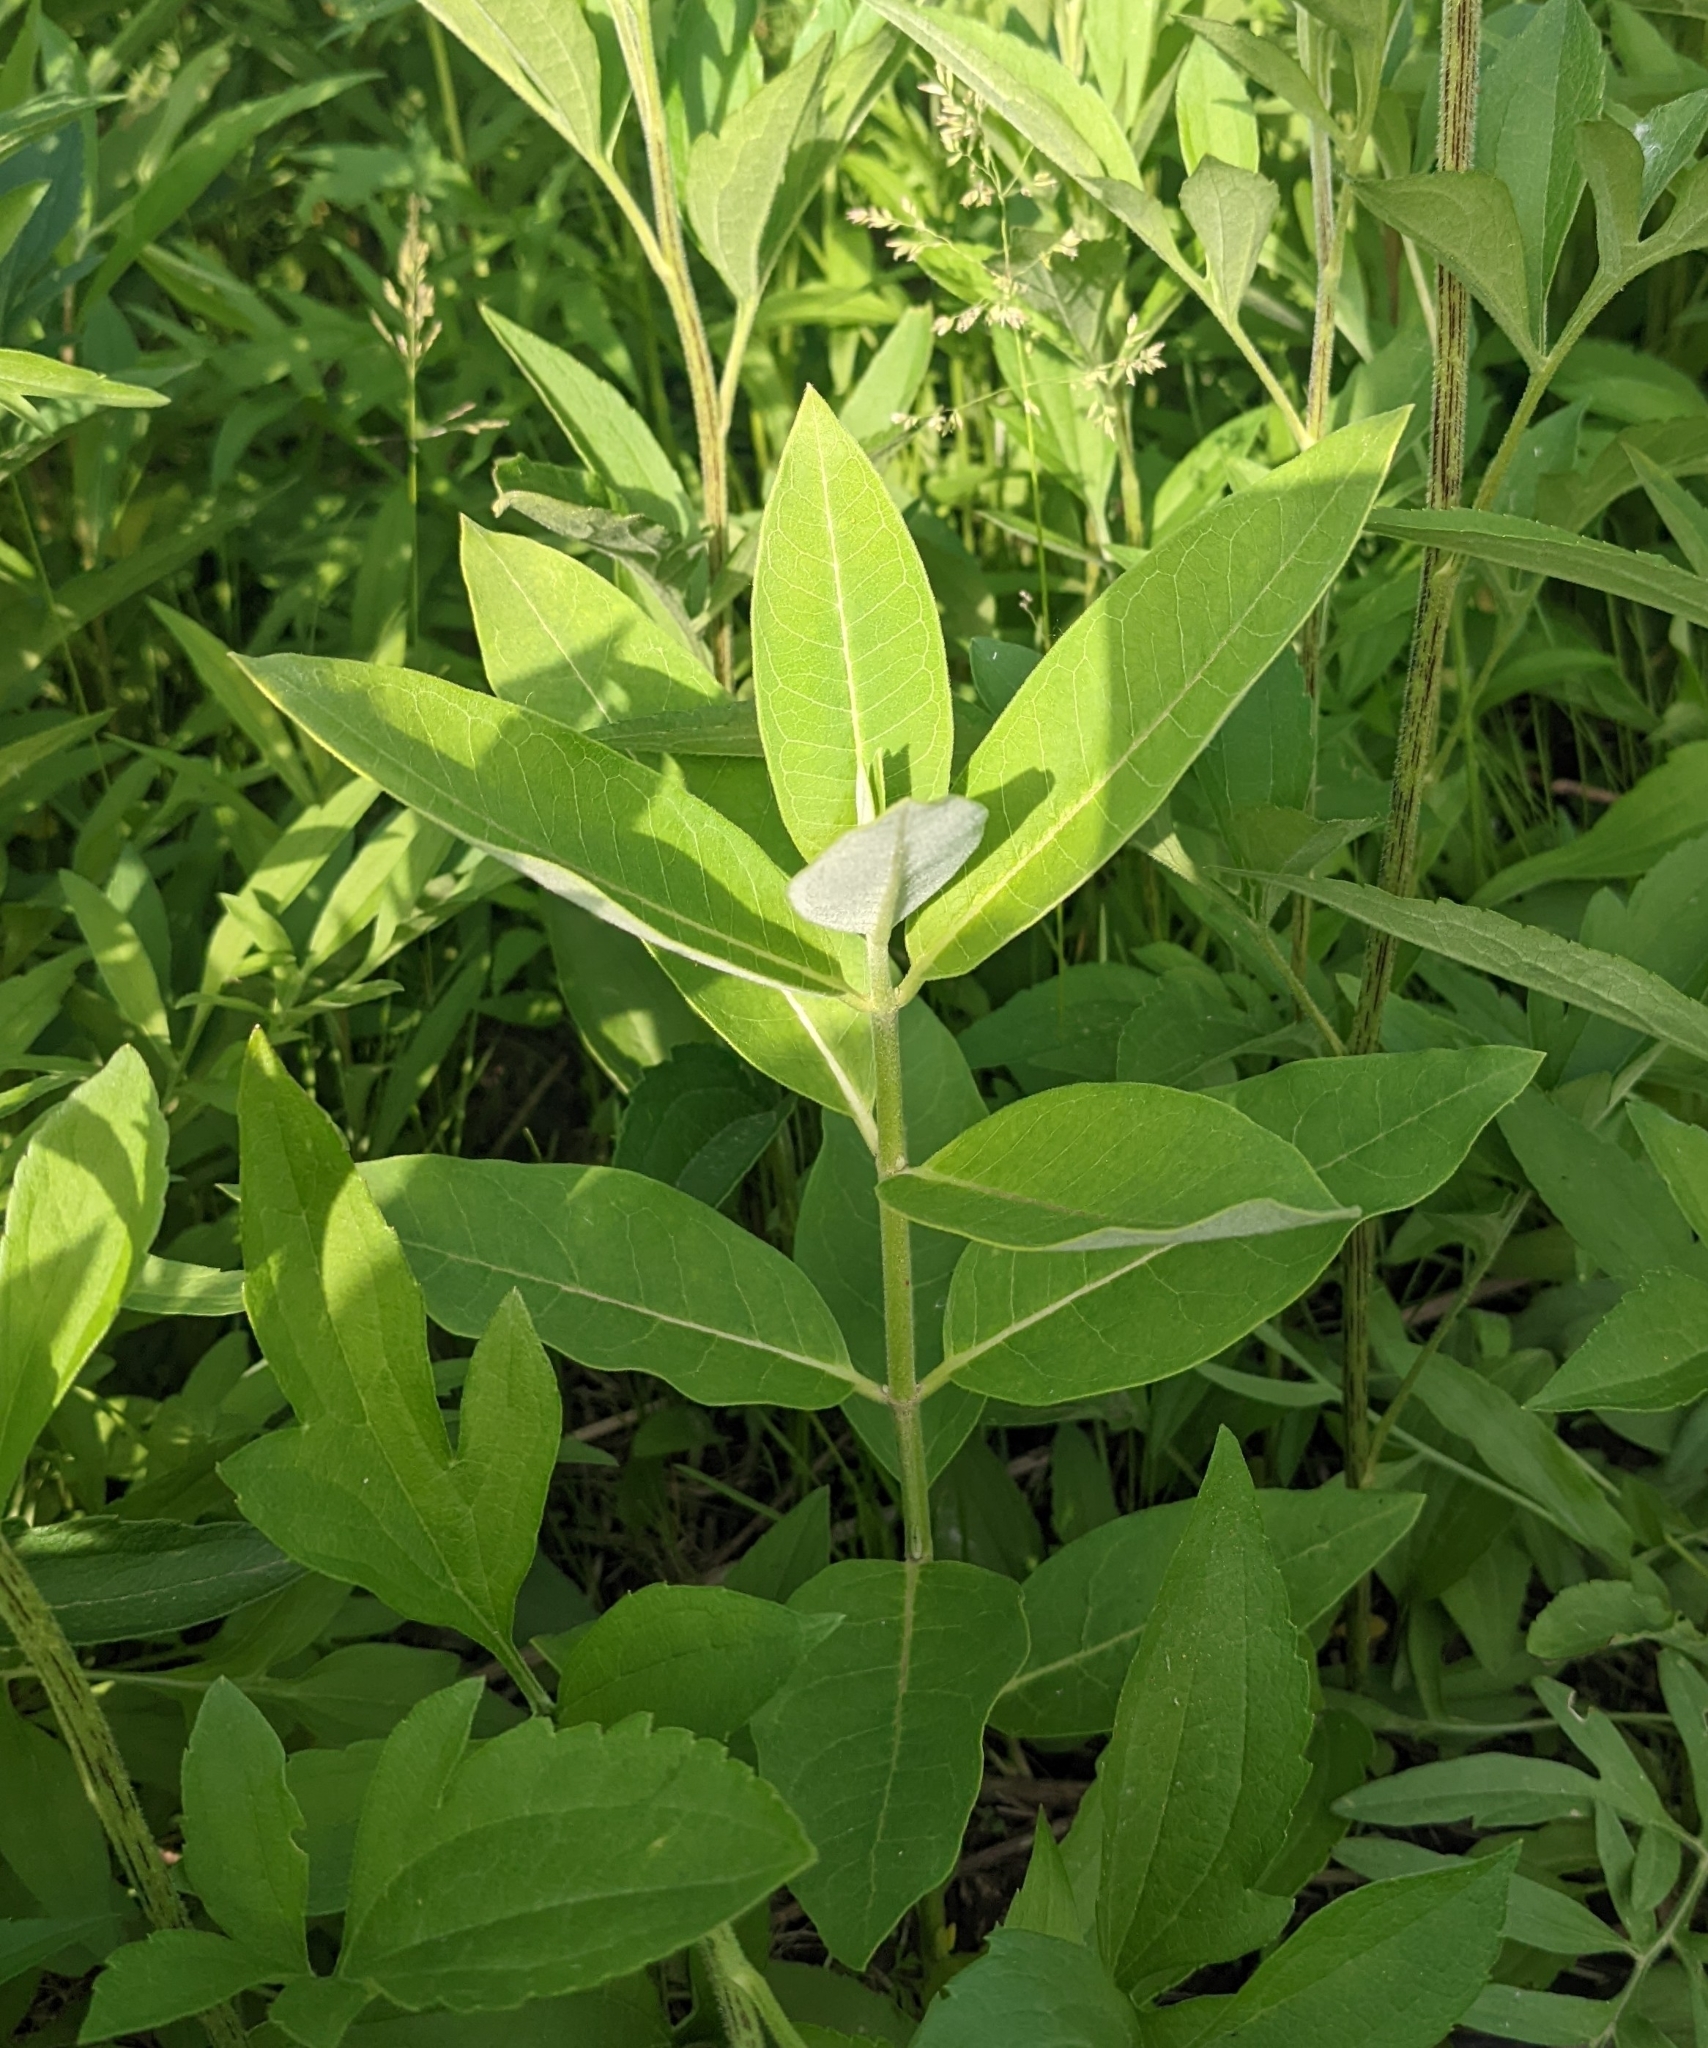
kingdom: Plantae
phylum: Tracheophyta
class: Magnoliopsida
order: Gentianales
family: Apocynaceae
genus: Asclepias
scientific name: Asclepias syriaca
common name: Common milkweed
